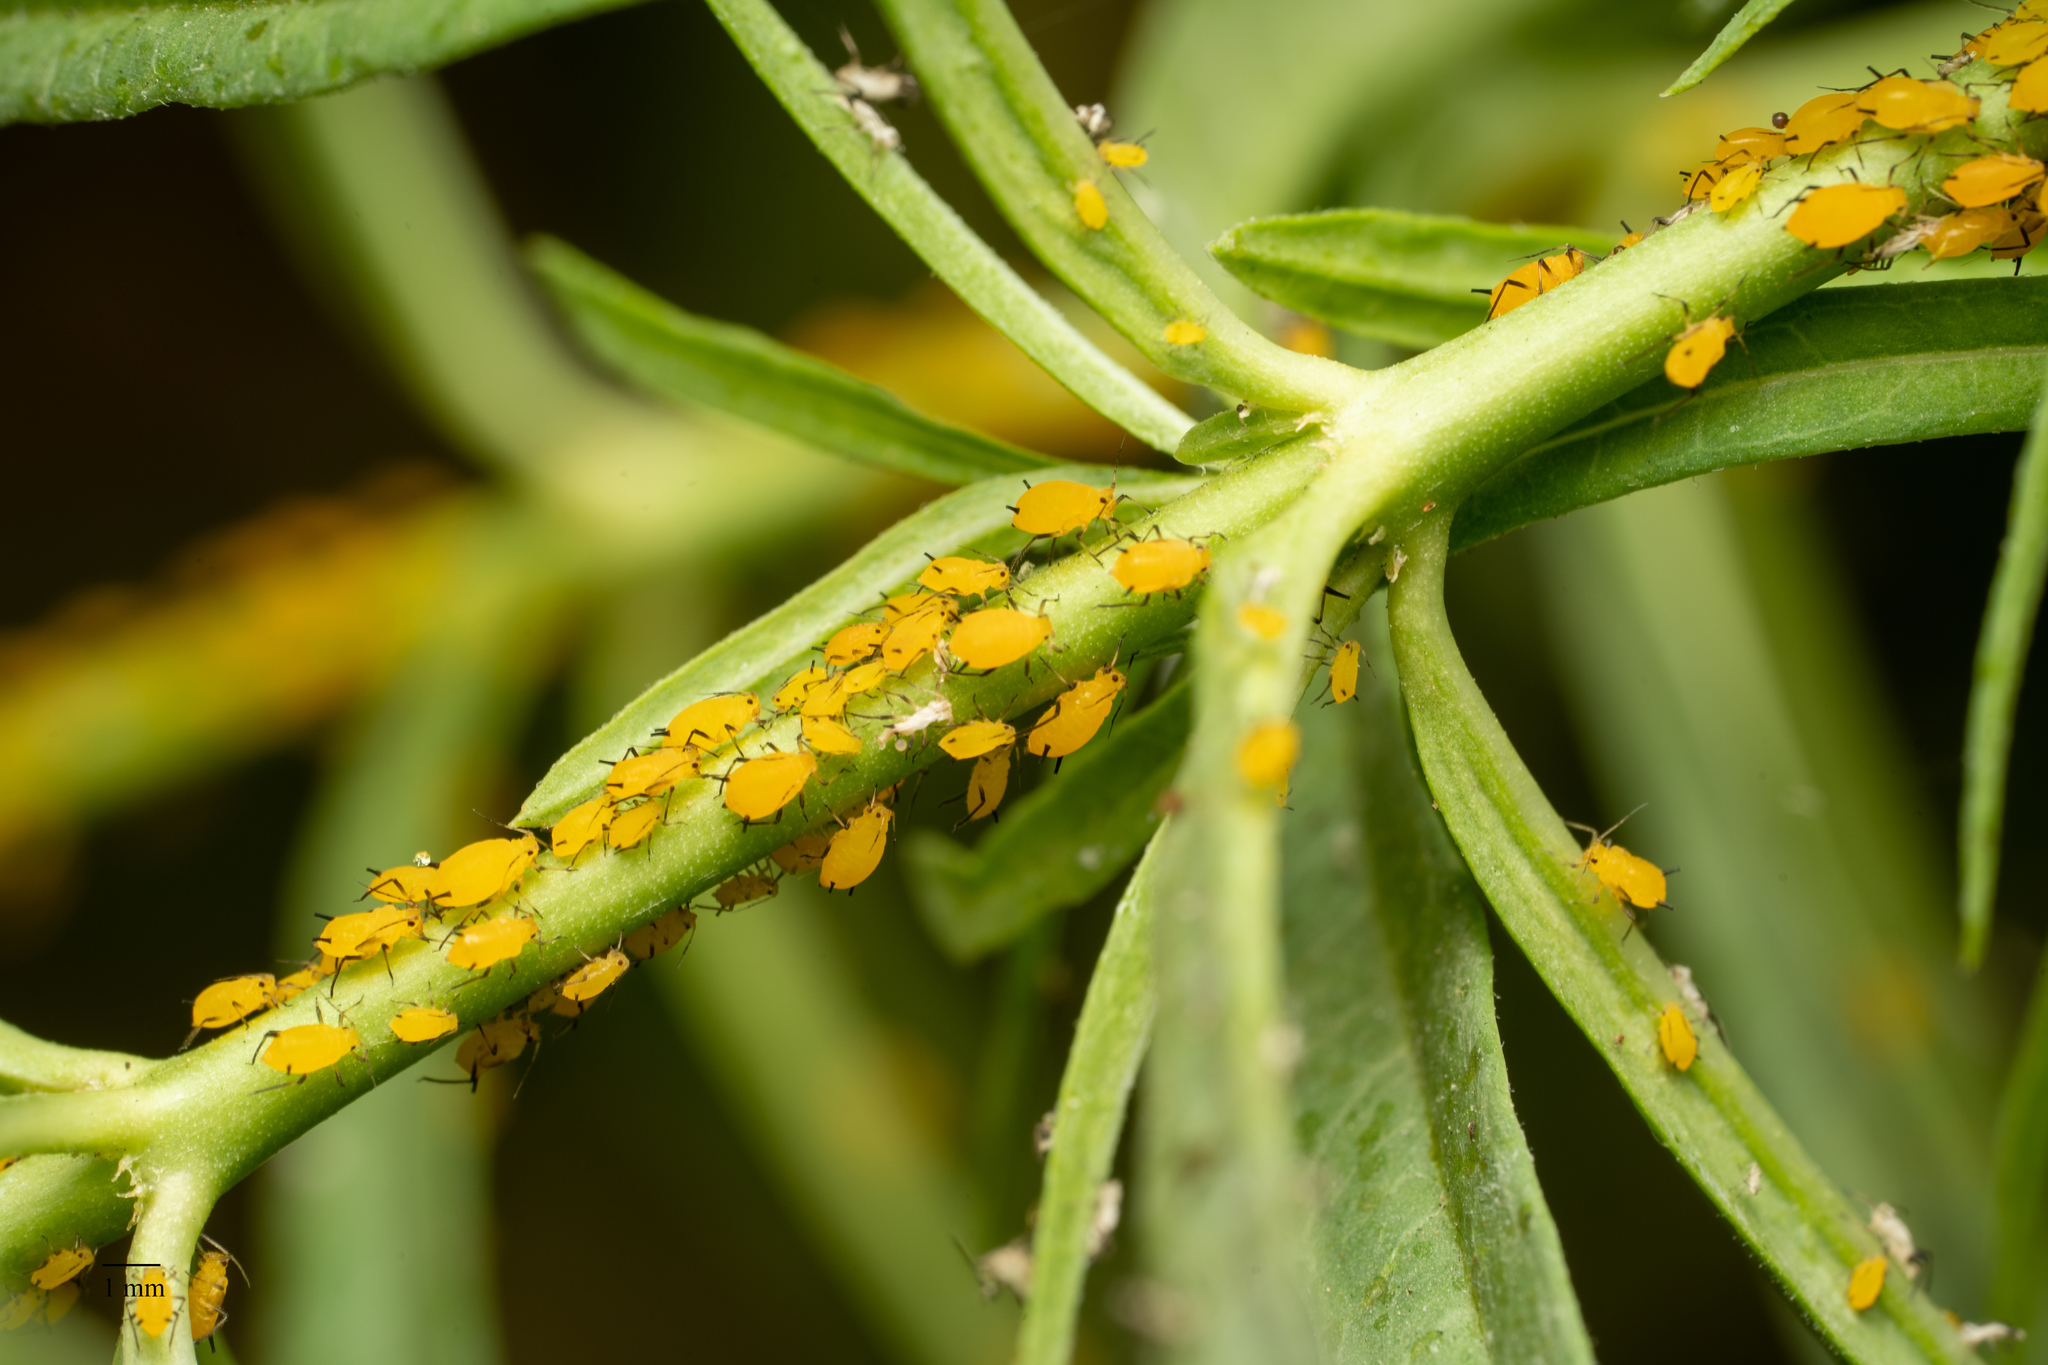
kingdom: Animalia
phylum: Arthropoda
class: Insecta
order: Hemiptera
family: Aphididae
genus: Aphis
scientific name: Aphis nerii
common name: Oleander aphid
